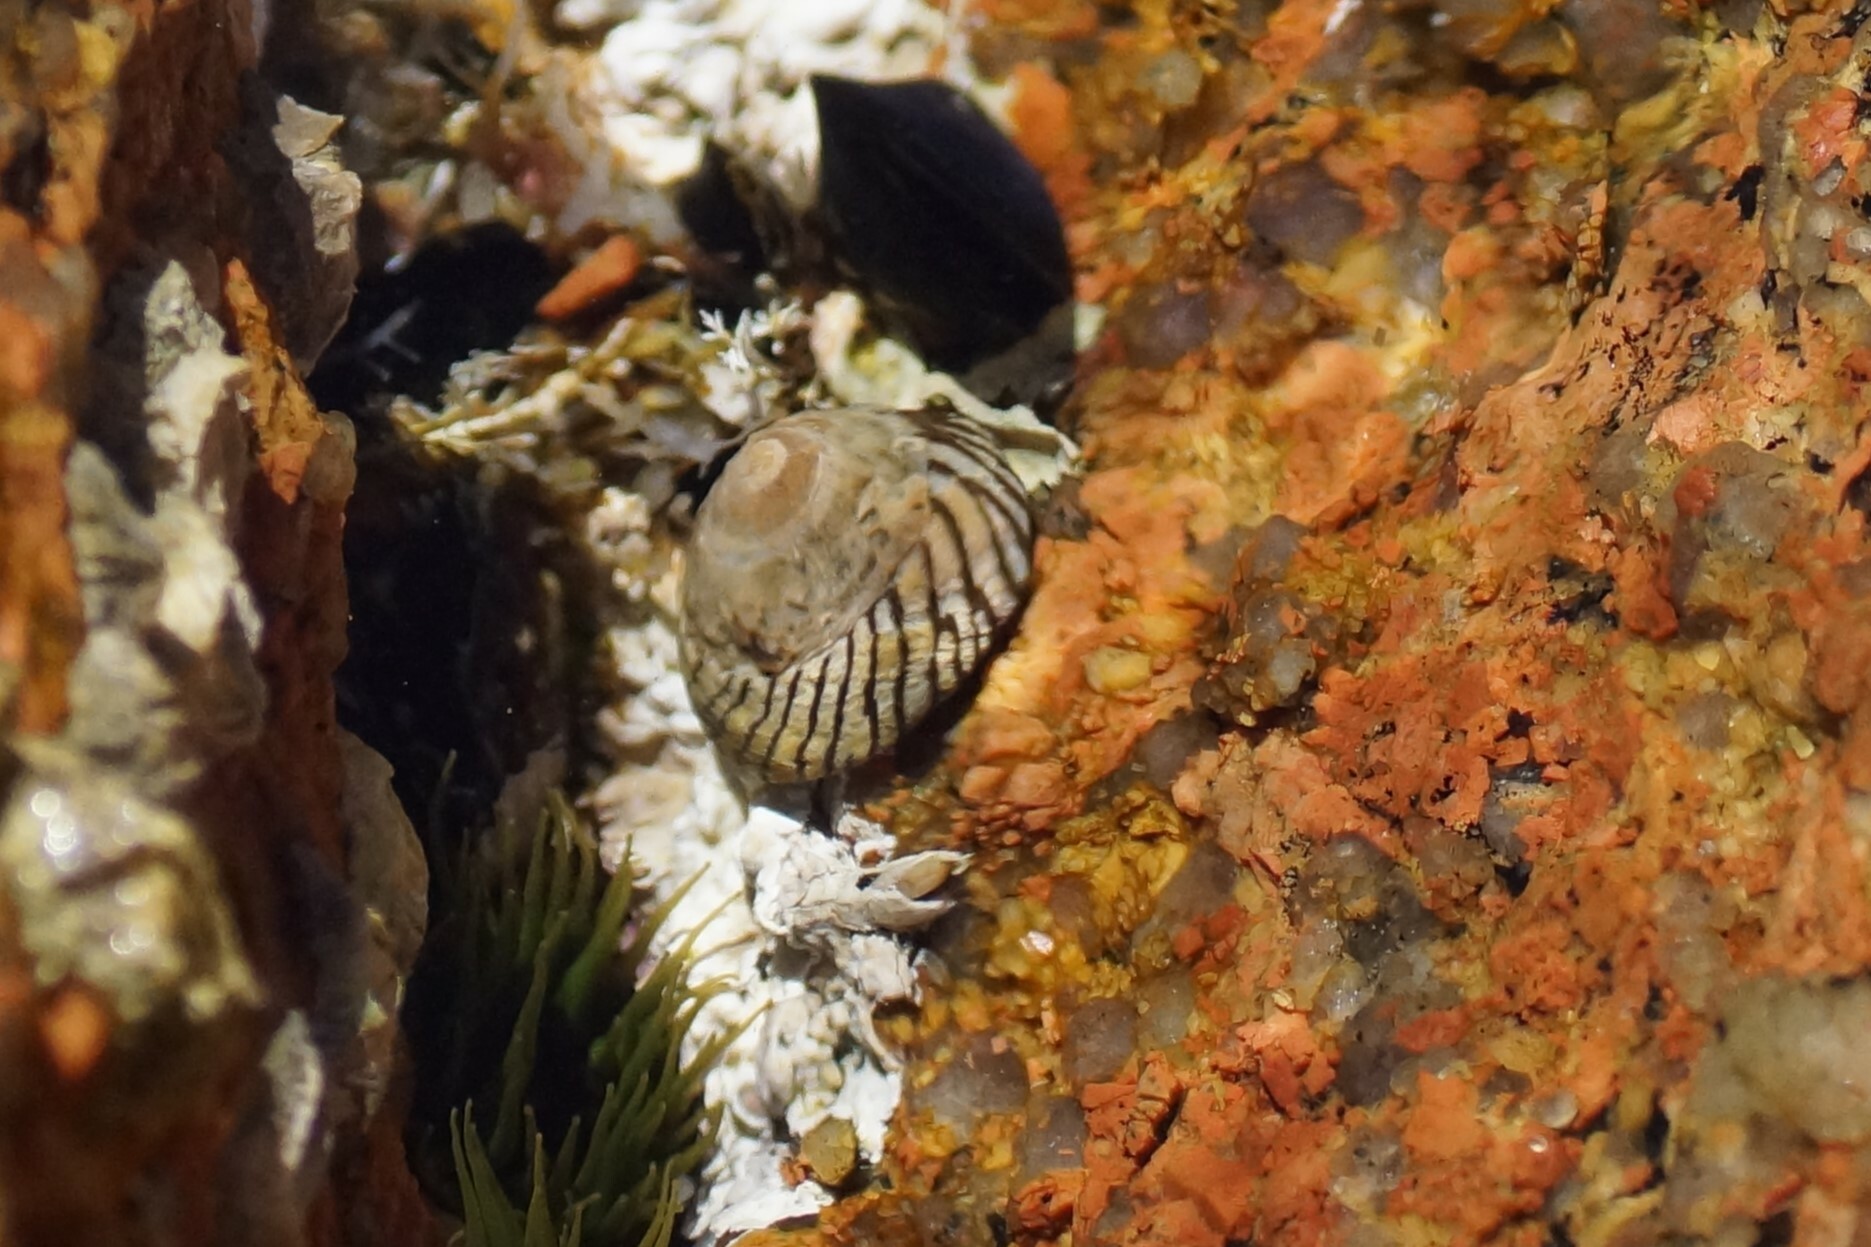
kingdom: Animalia
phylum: Mollusca
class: Gastropoda
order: Littorinimorpha
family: Littorinidae
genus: Bembicium
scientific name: Bembicium nanum
